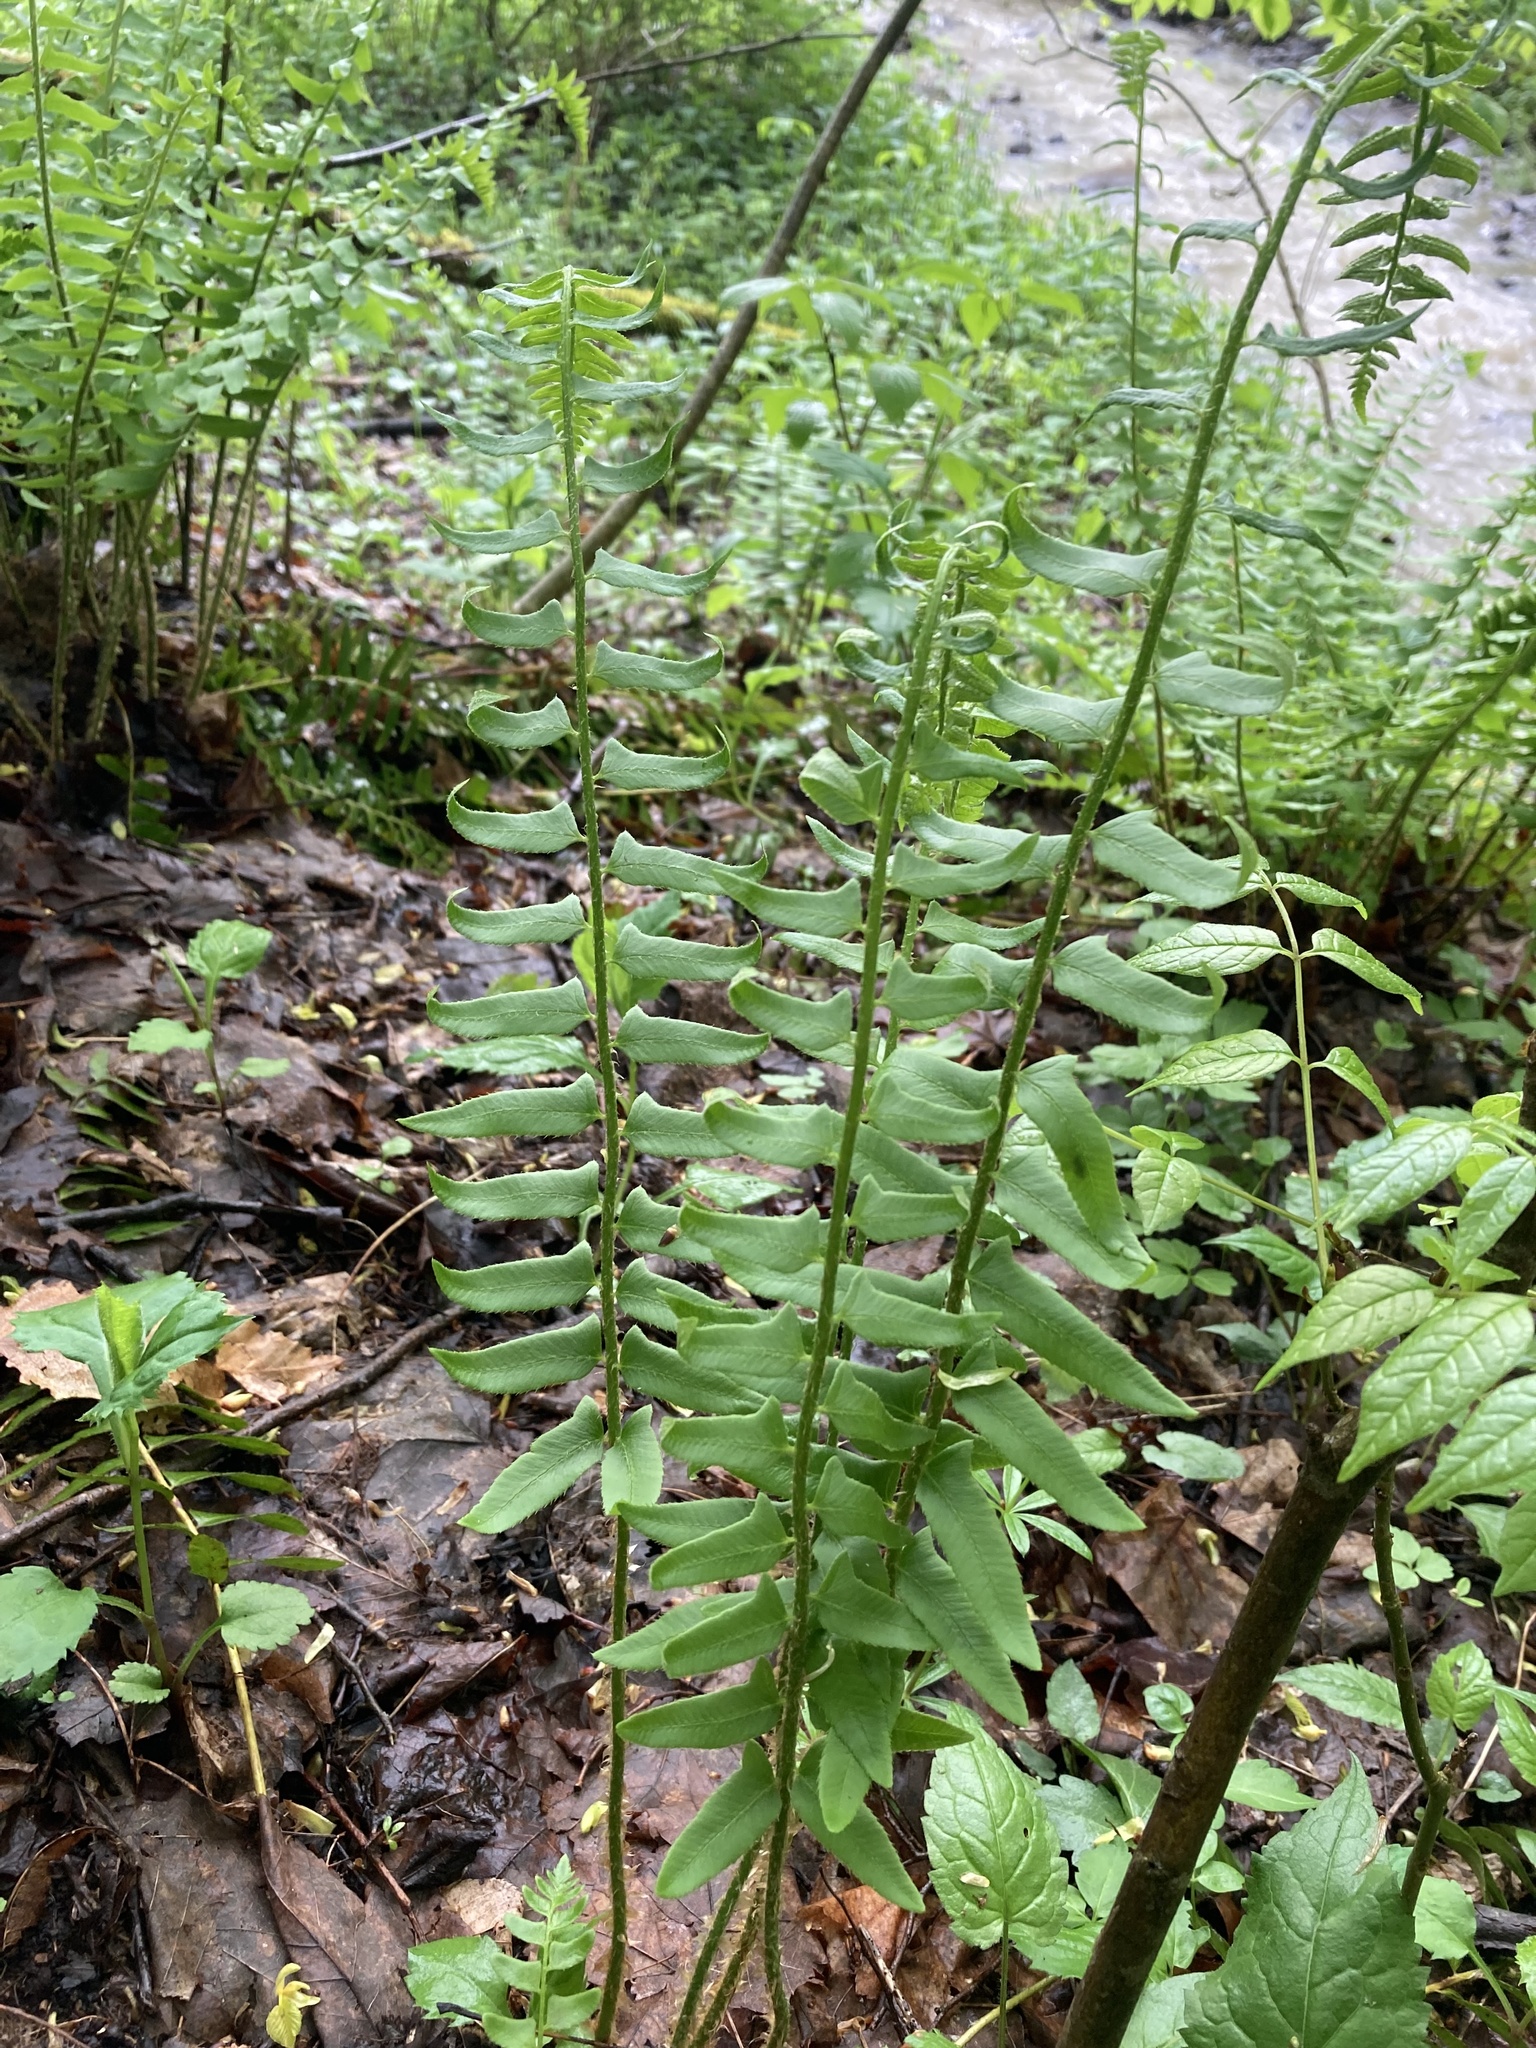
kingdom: Plantae
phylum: Tracheophyta
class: Polypodiopsida
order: Polypodiales
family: Dryopteridaceae
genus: Polystichum
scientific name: Polystichum acrostichoides
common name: Christmas fern
